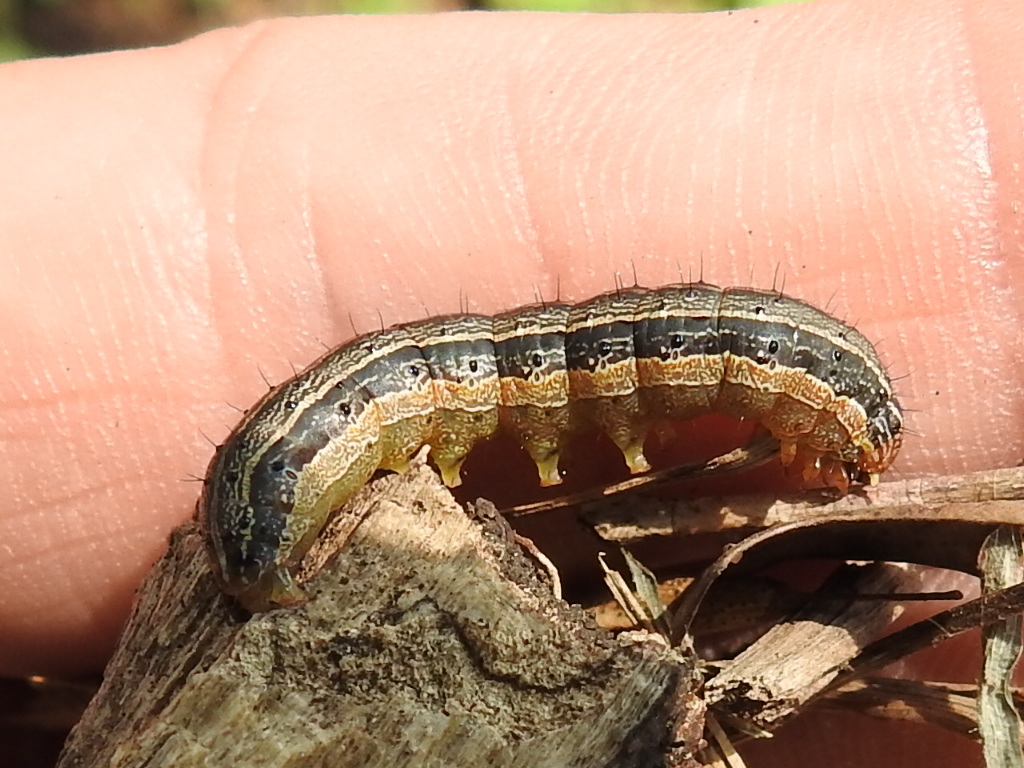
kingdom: Animalia
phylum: Arthropoda
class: Insecta
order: Lepidoptera
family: Noctuidae
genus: Spodoptera
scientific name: Spodoptera frugiperda
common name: Fall armyworm
